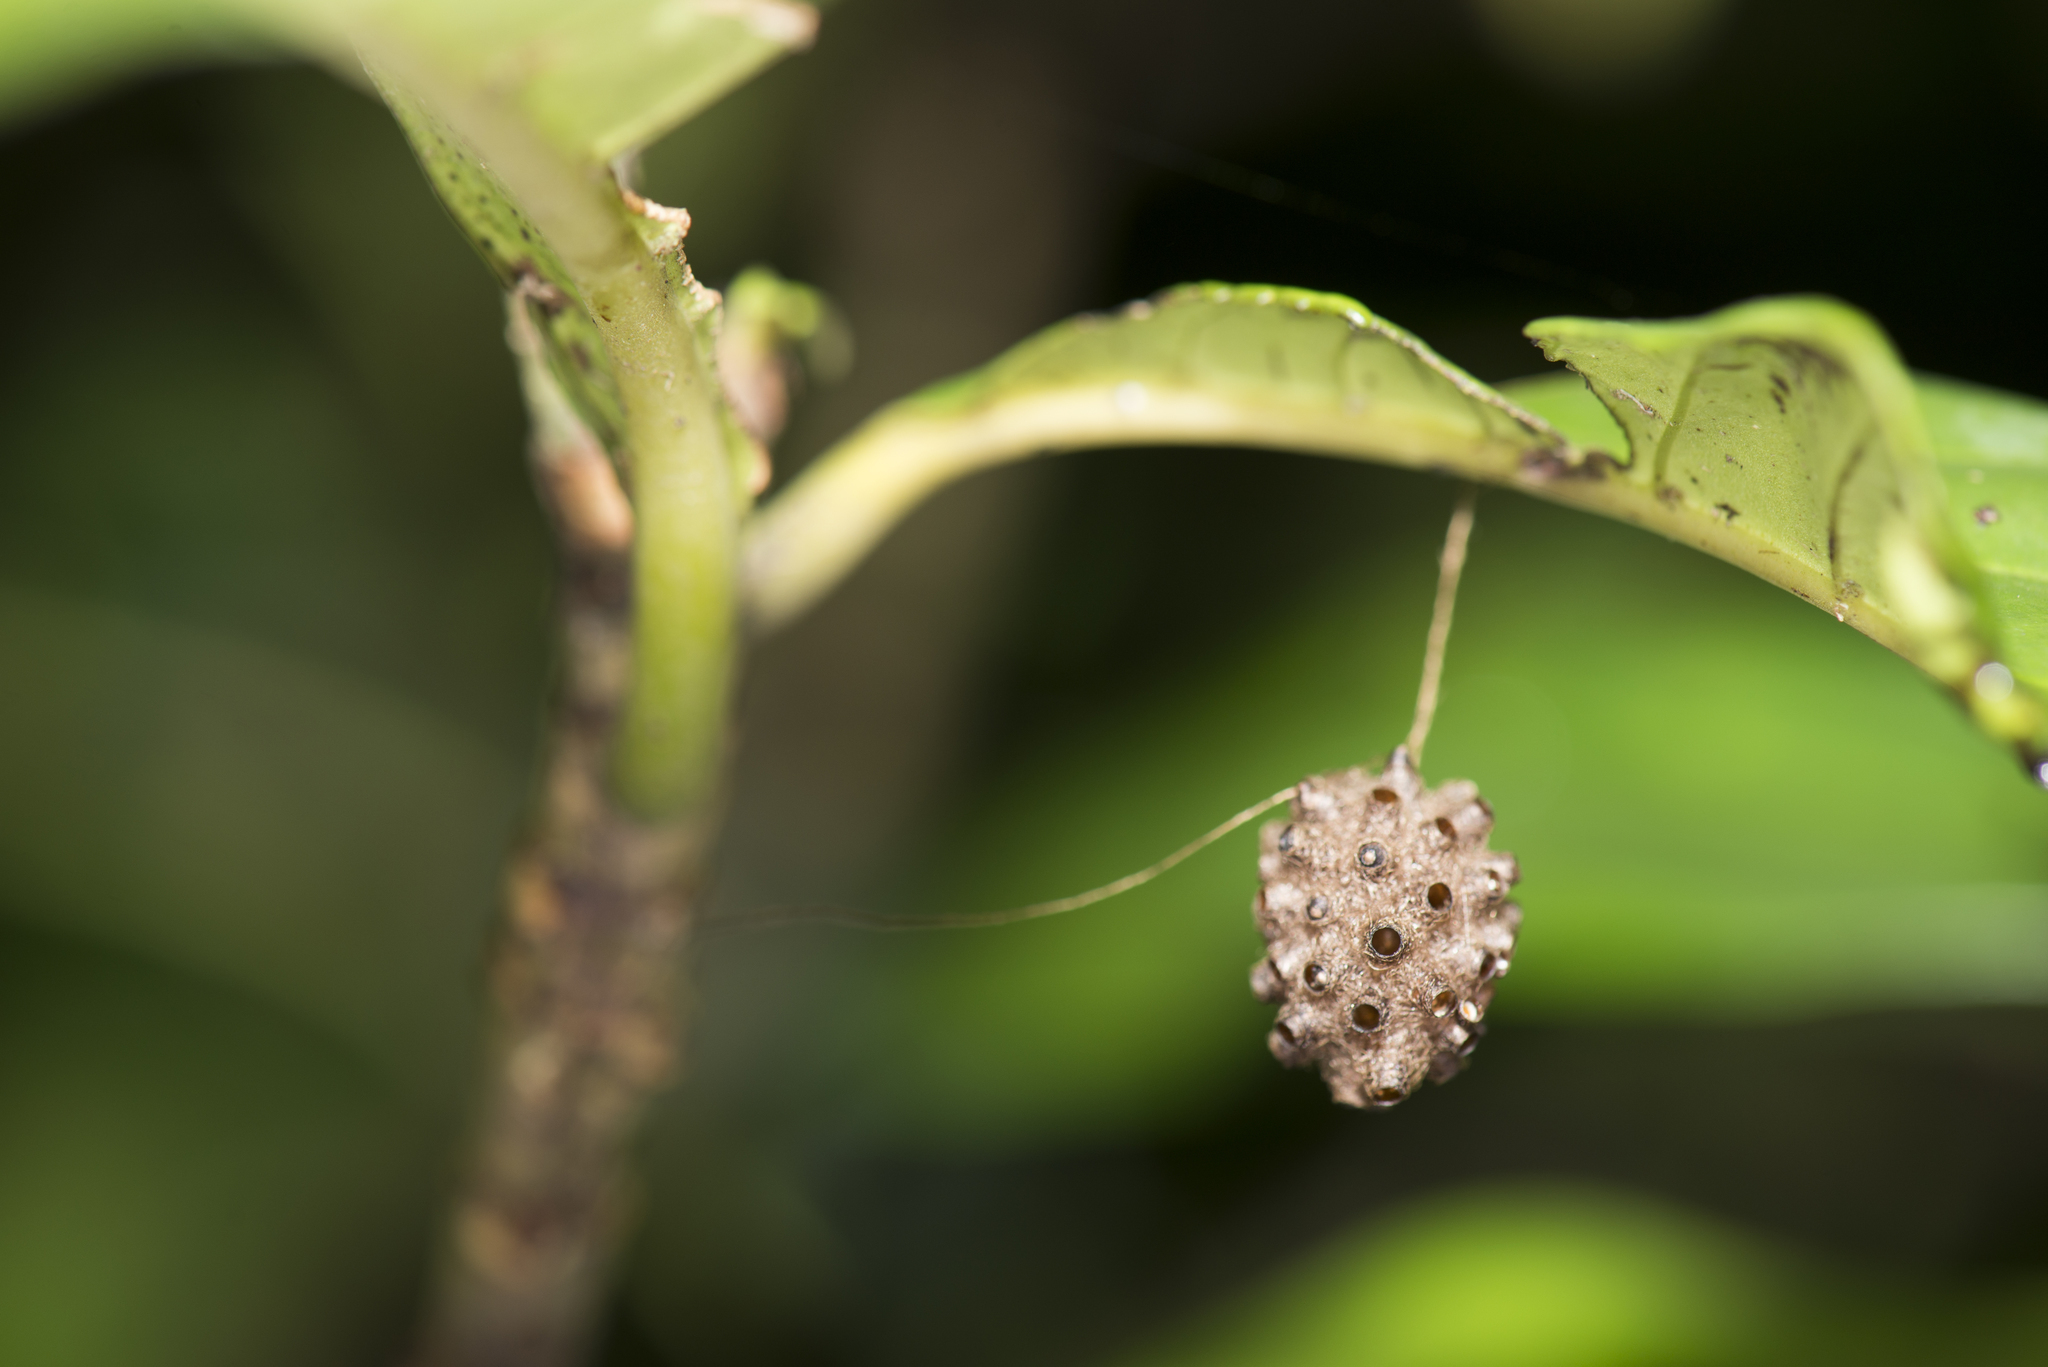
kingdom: Animalia
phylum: Arthropoda
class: Insecta
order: Hymenoptera
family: Braconidae
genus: Meteorus
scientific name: Meteorus stellatus
